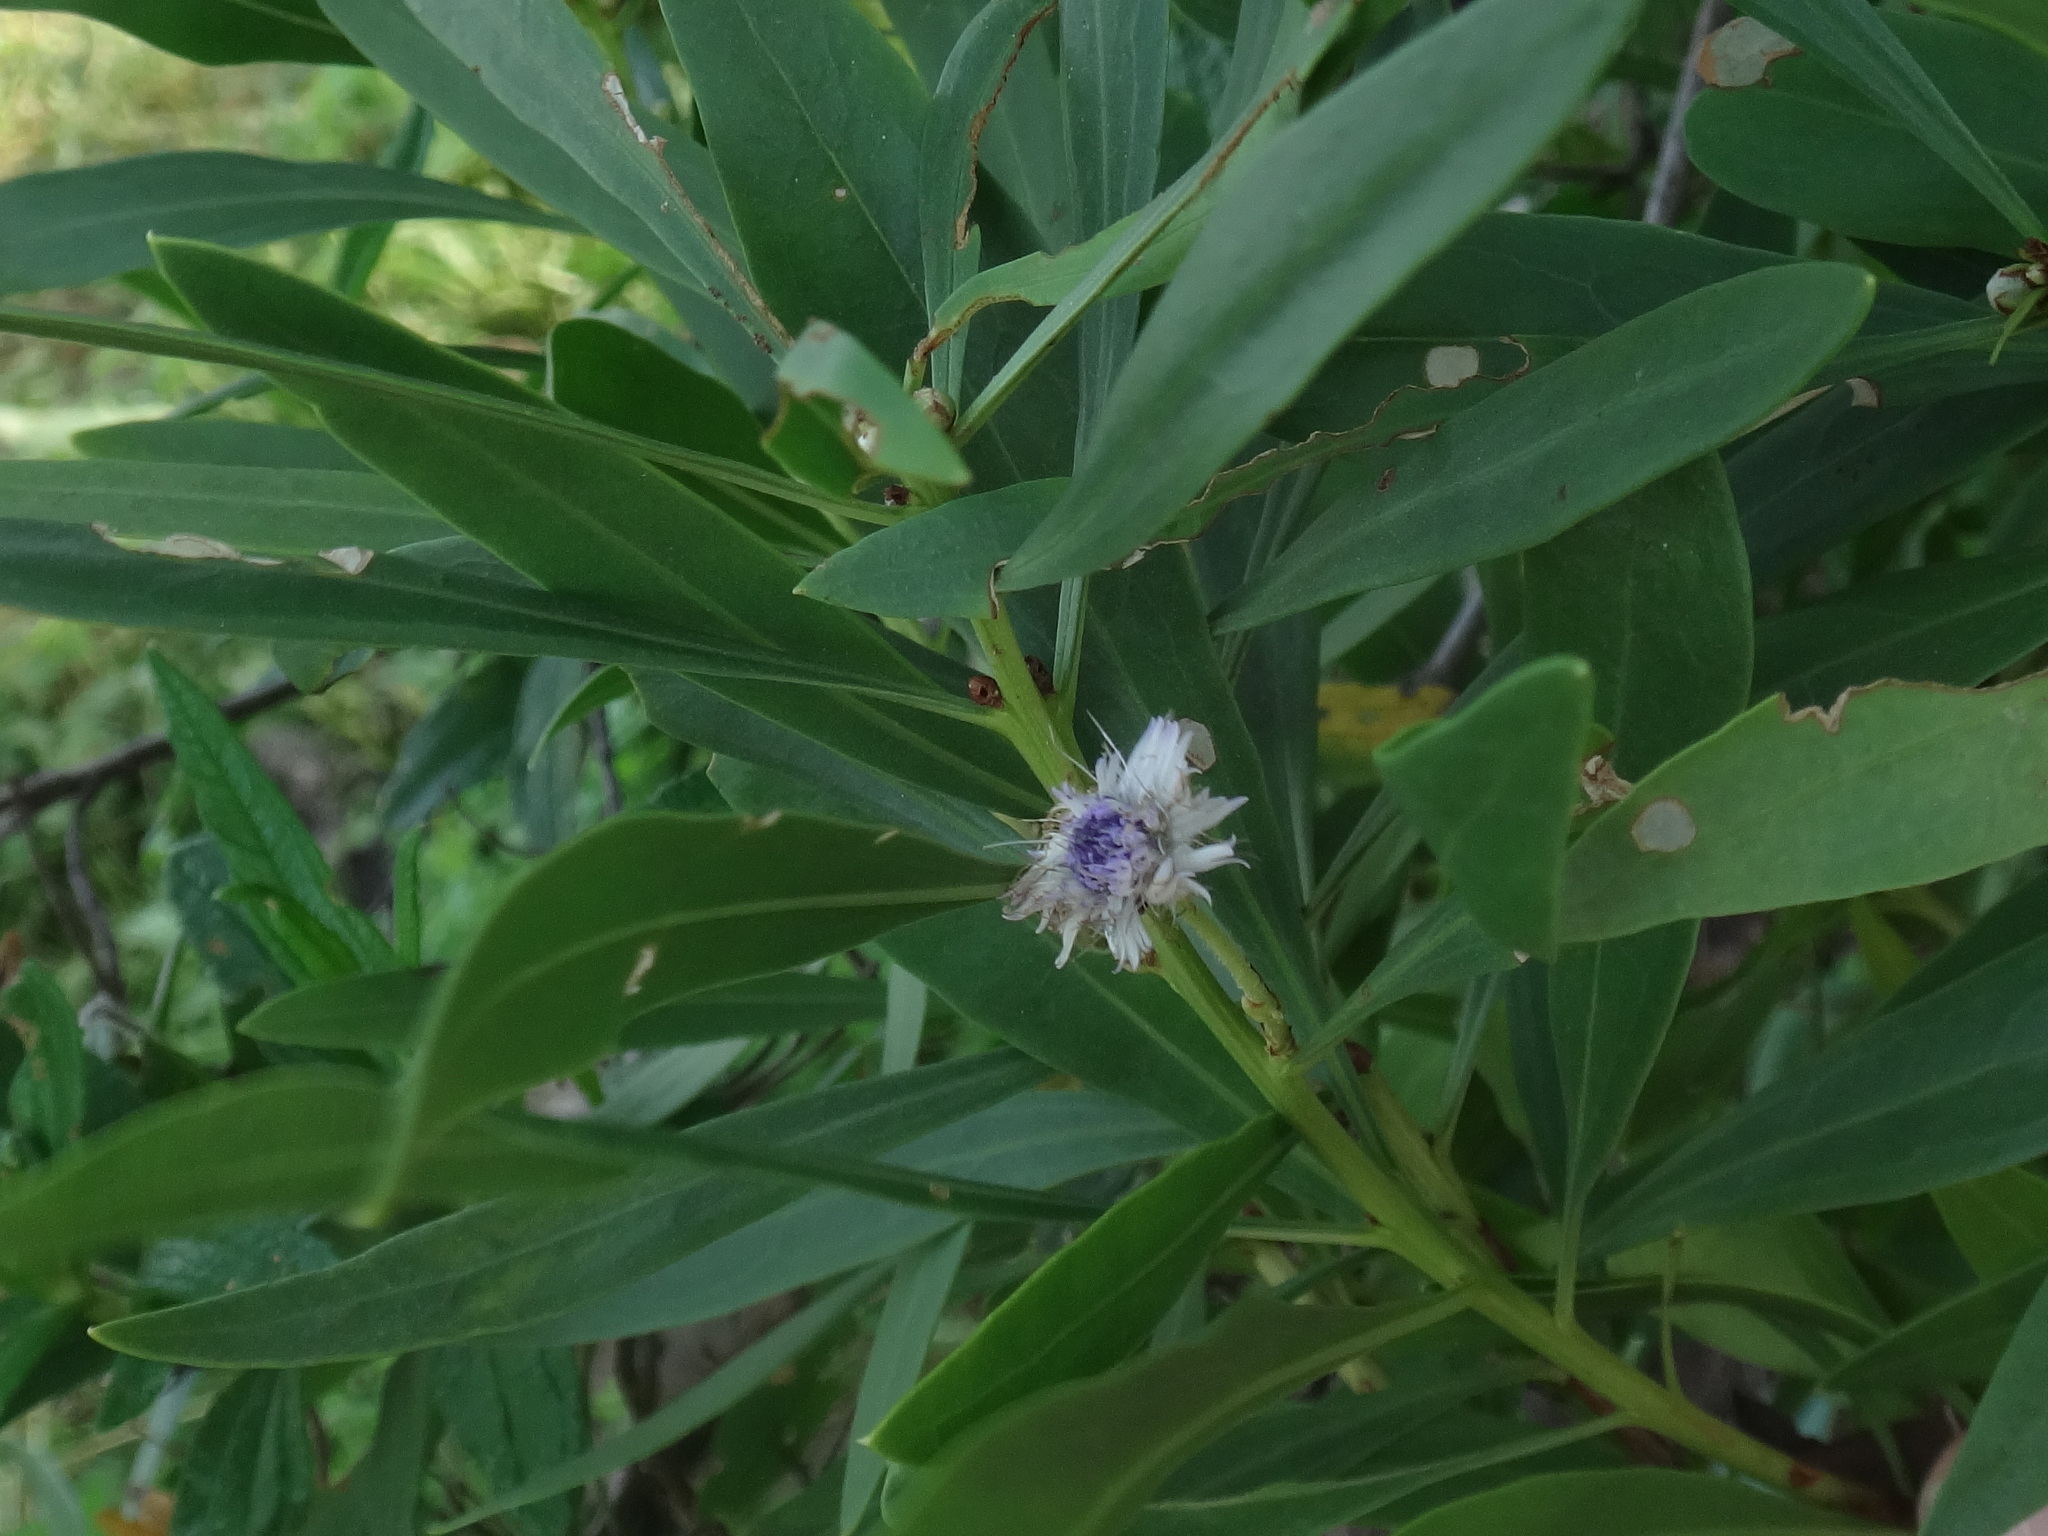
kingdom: Plantae
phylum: Tracheophyta
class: Magnoliopsida
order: Lamiales
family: Plantaginaceae
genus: Globularia
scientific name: Globularia salicina
